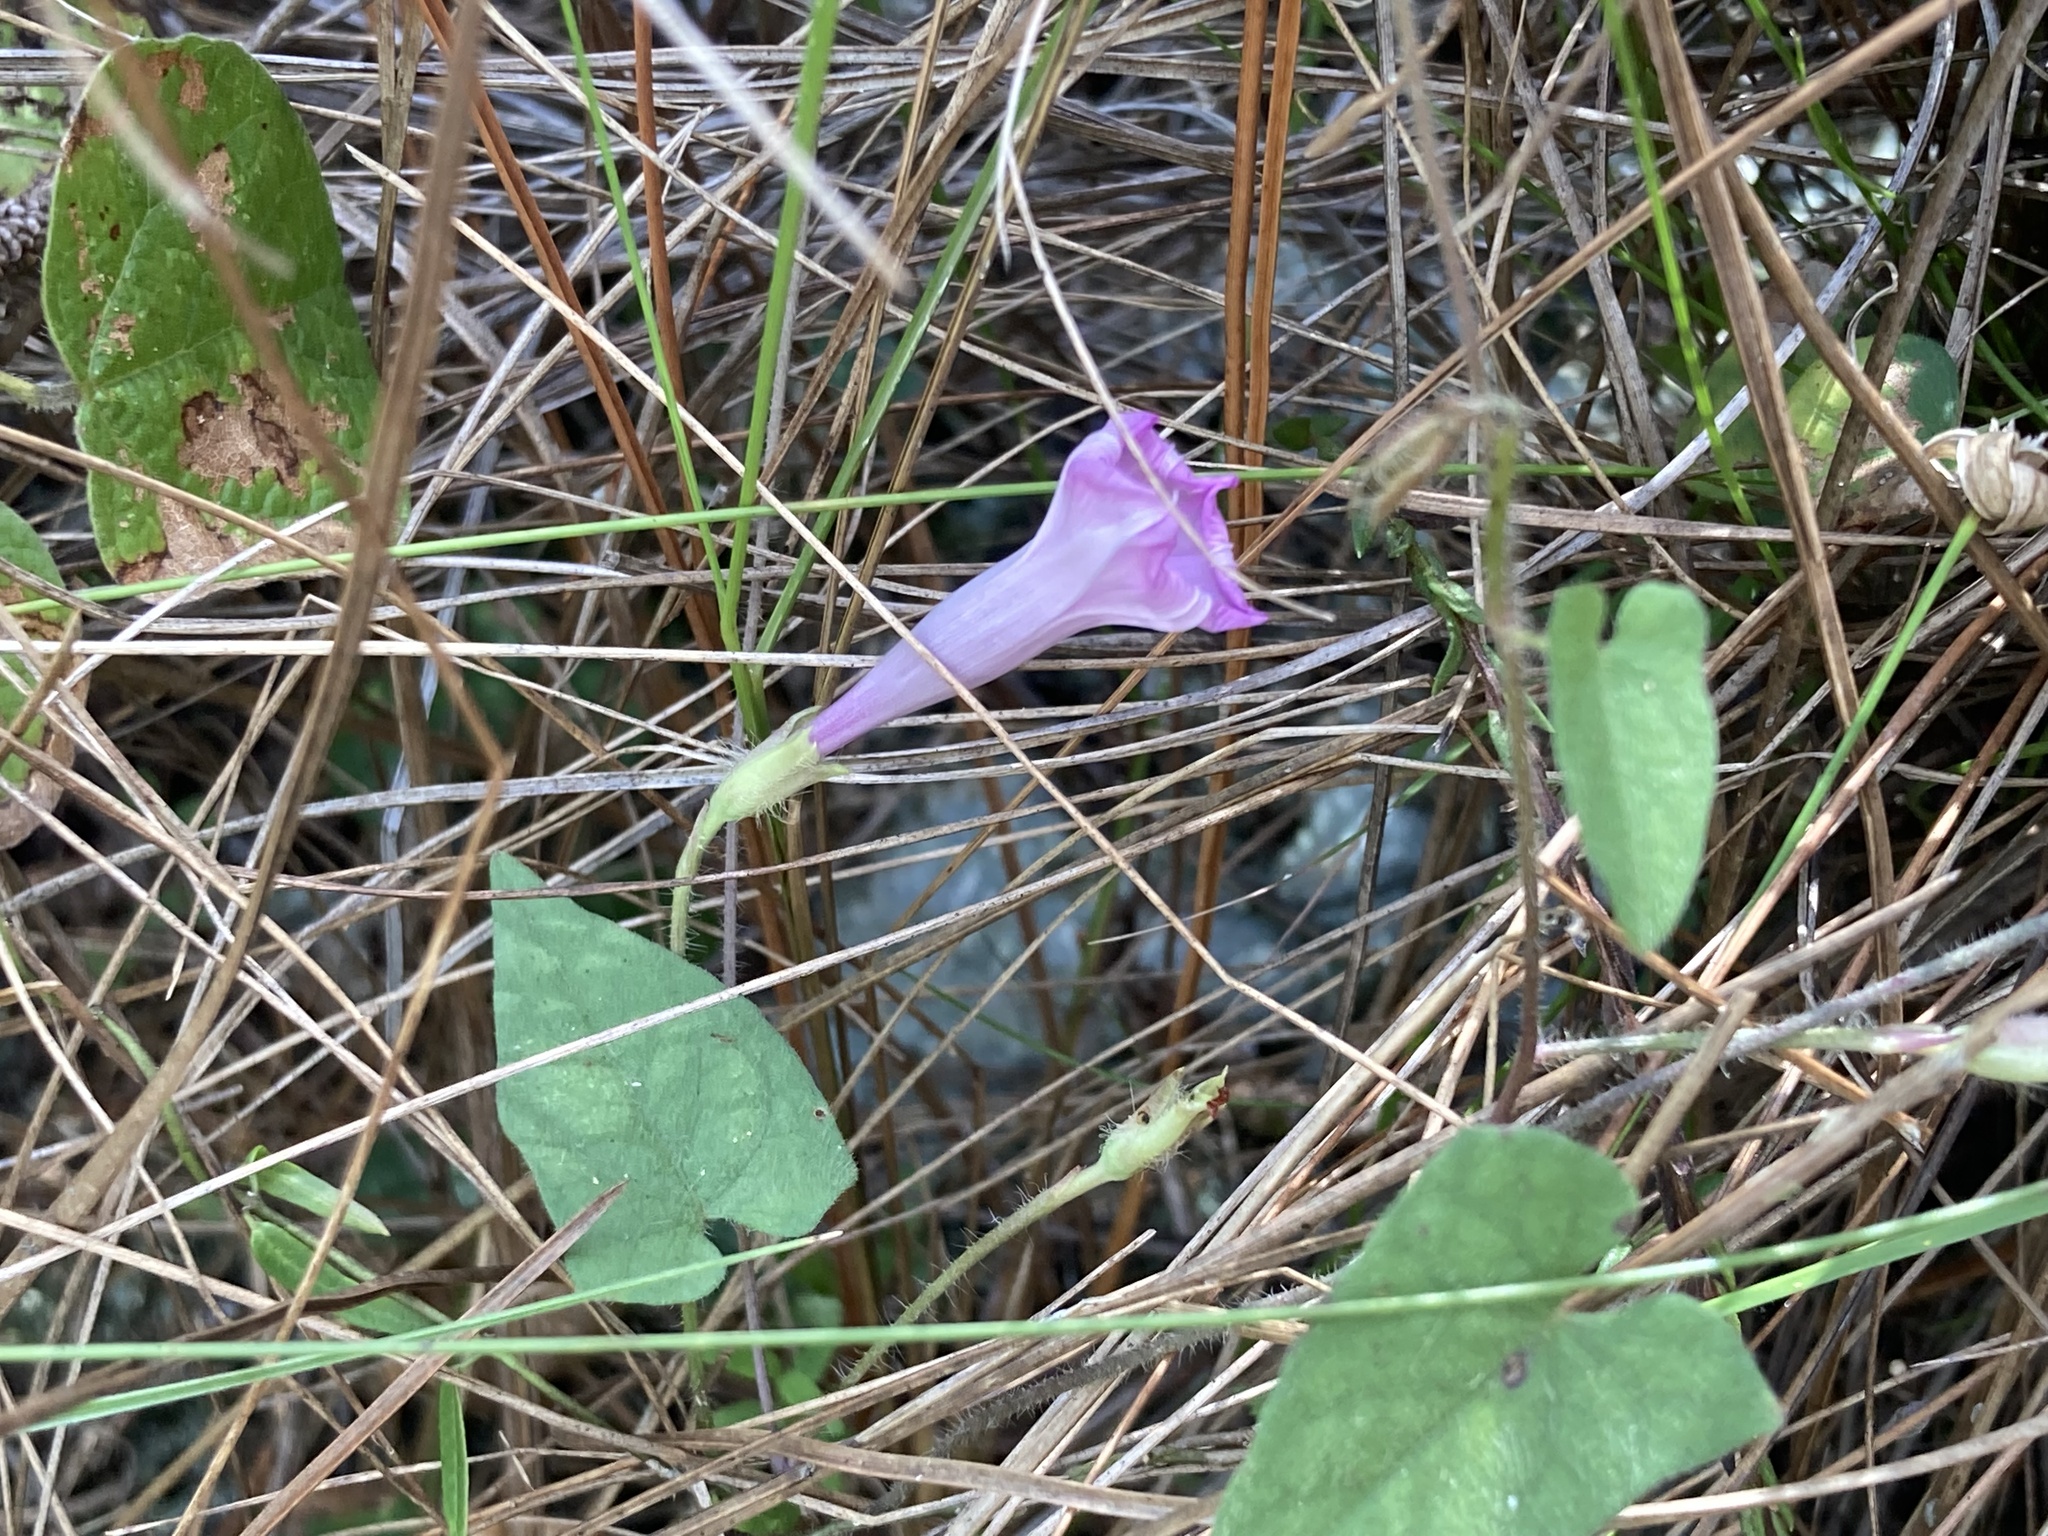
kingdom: Plantae
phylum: Tracheophyta
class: Magnoliopsida
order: Solanales
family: Convolvulaceae
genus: Ipomoea
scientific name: Ipomoea tenuissima
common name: Rockland morning glory
